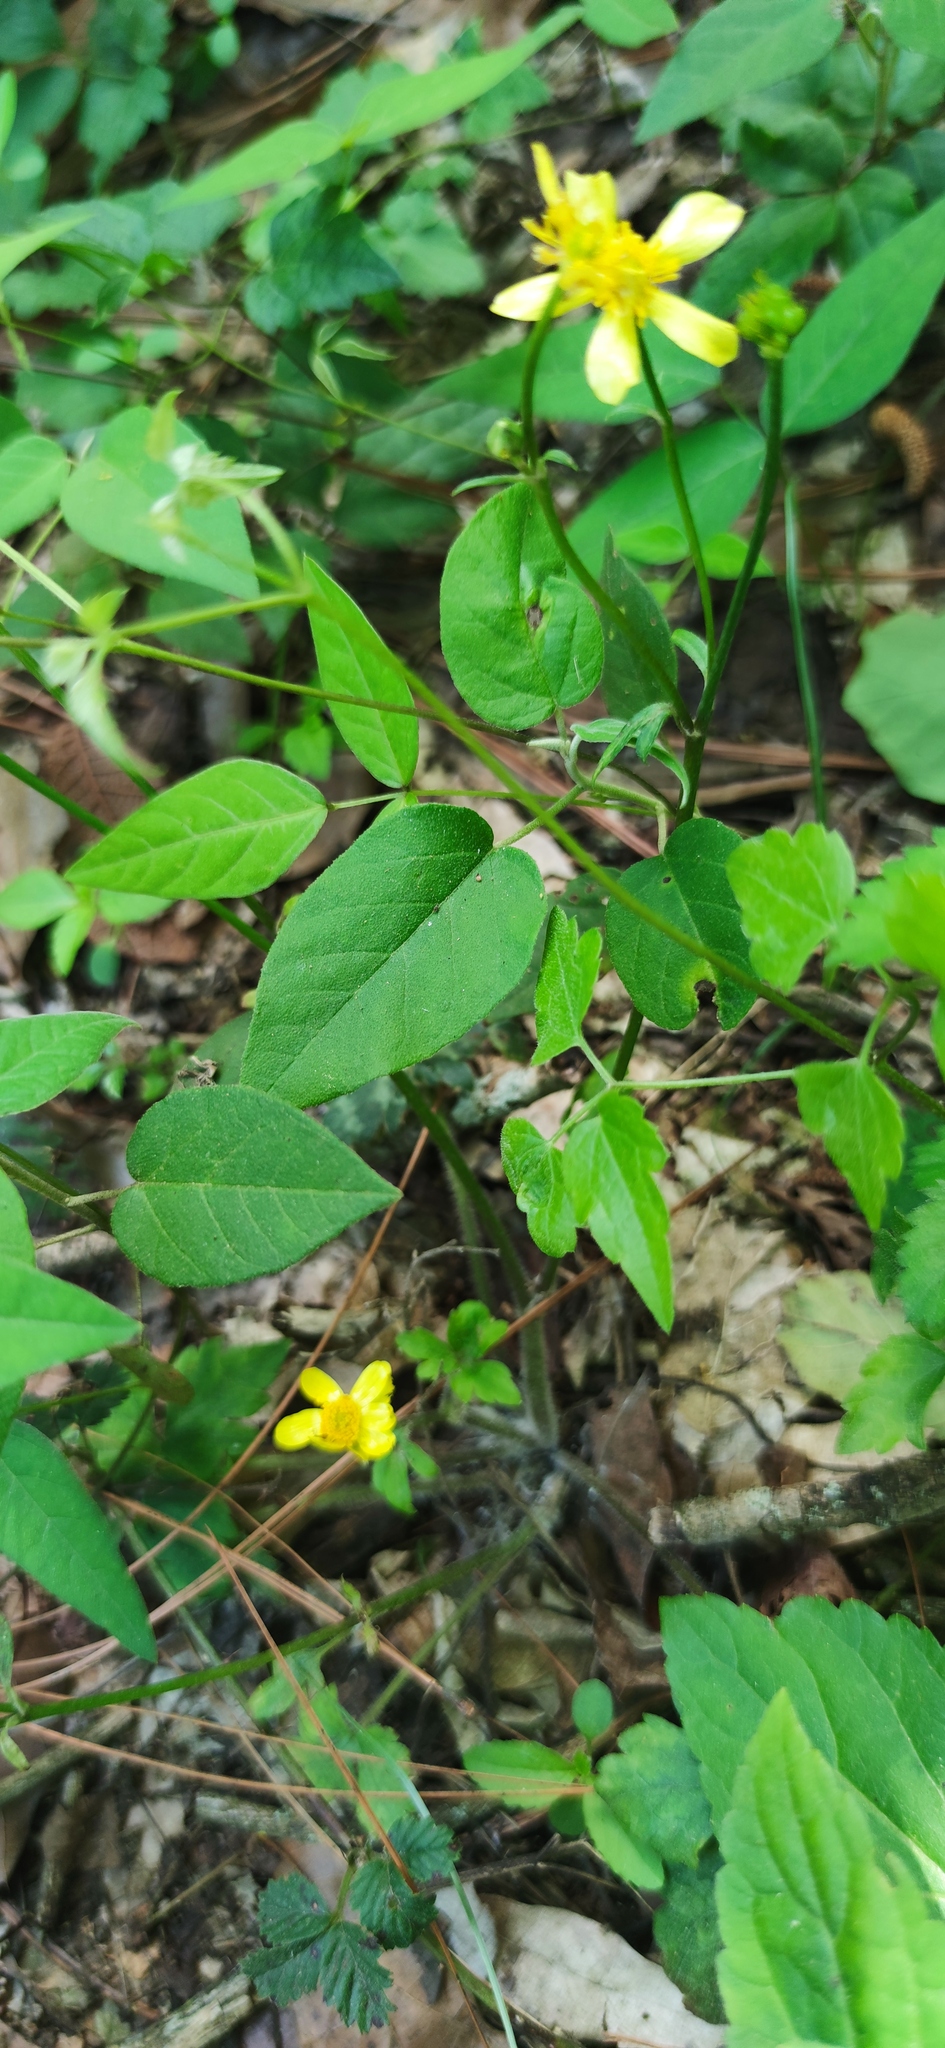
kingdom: Plantae
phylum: Tracheophyta
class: Magnoliopsida
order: Ranunculales
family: Ranunculaceae
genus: Ranunculus
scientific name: Ranunculus sierrae-orientalis
